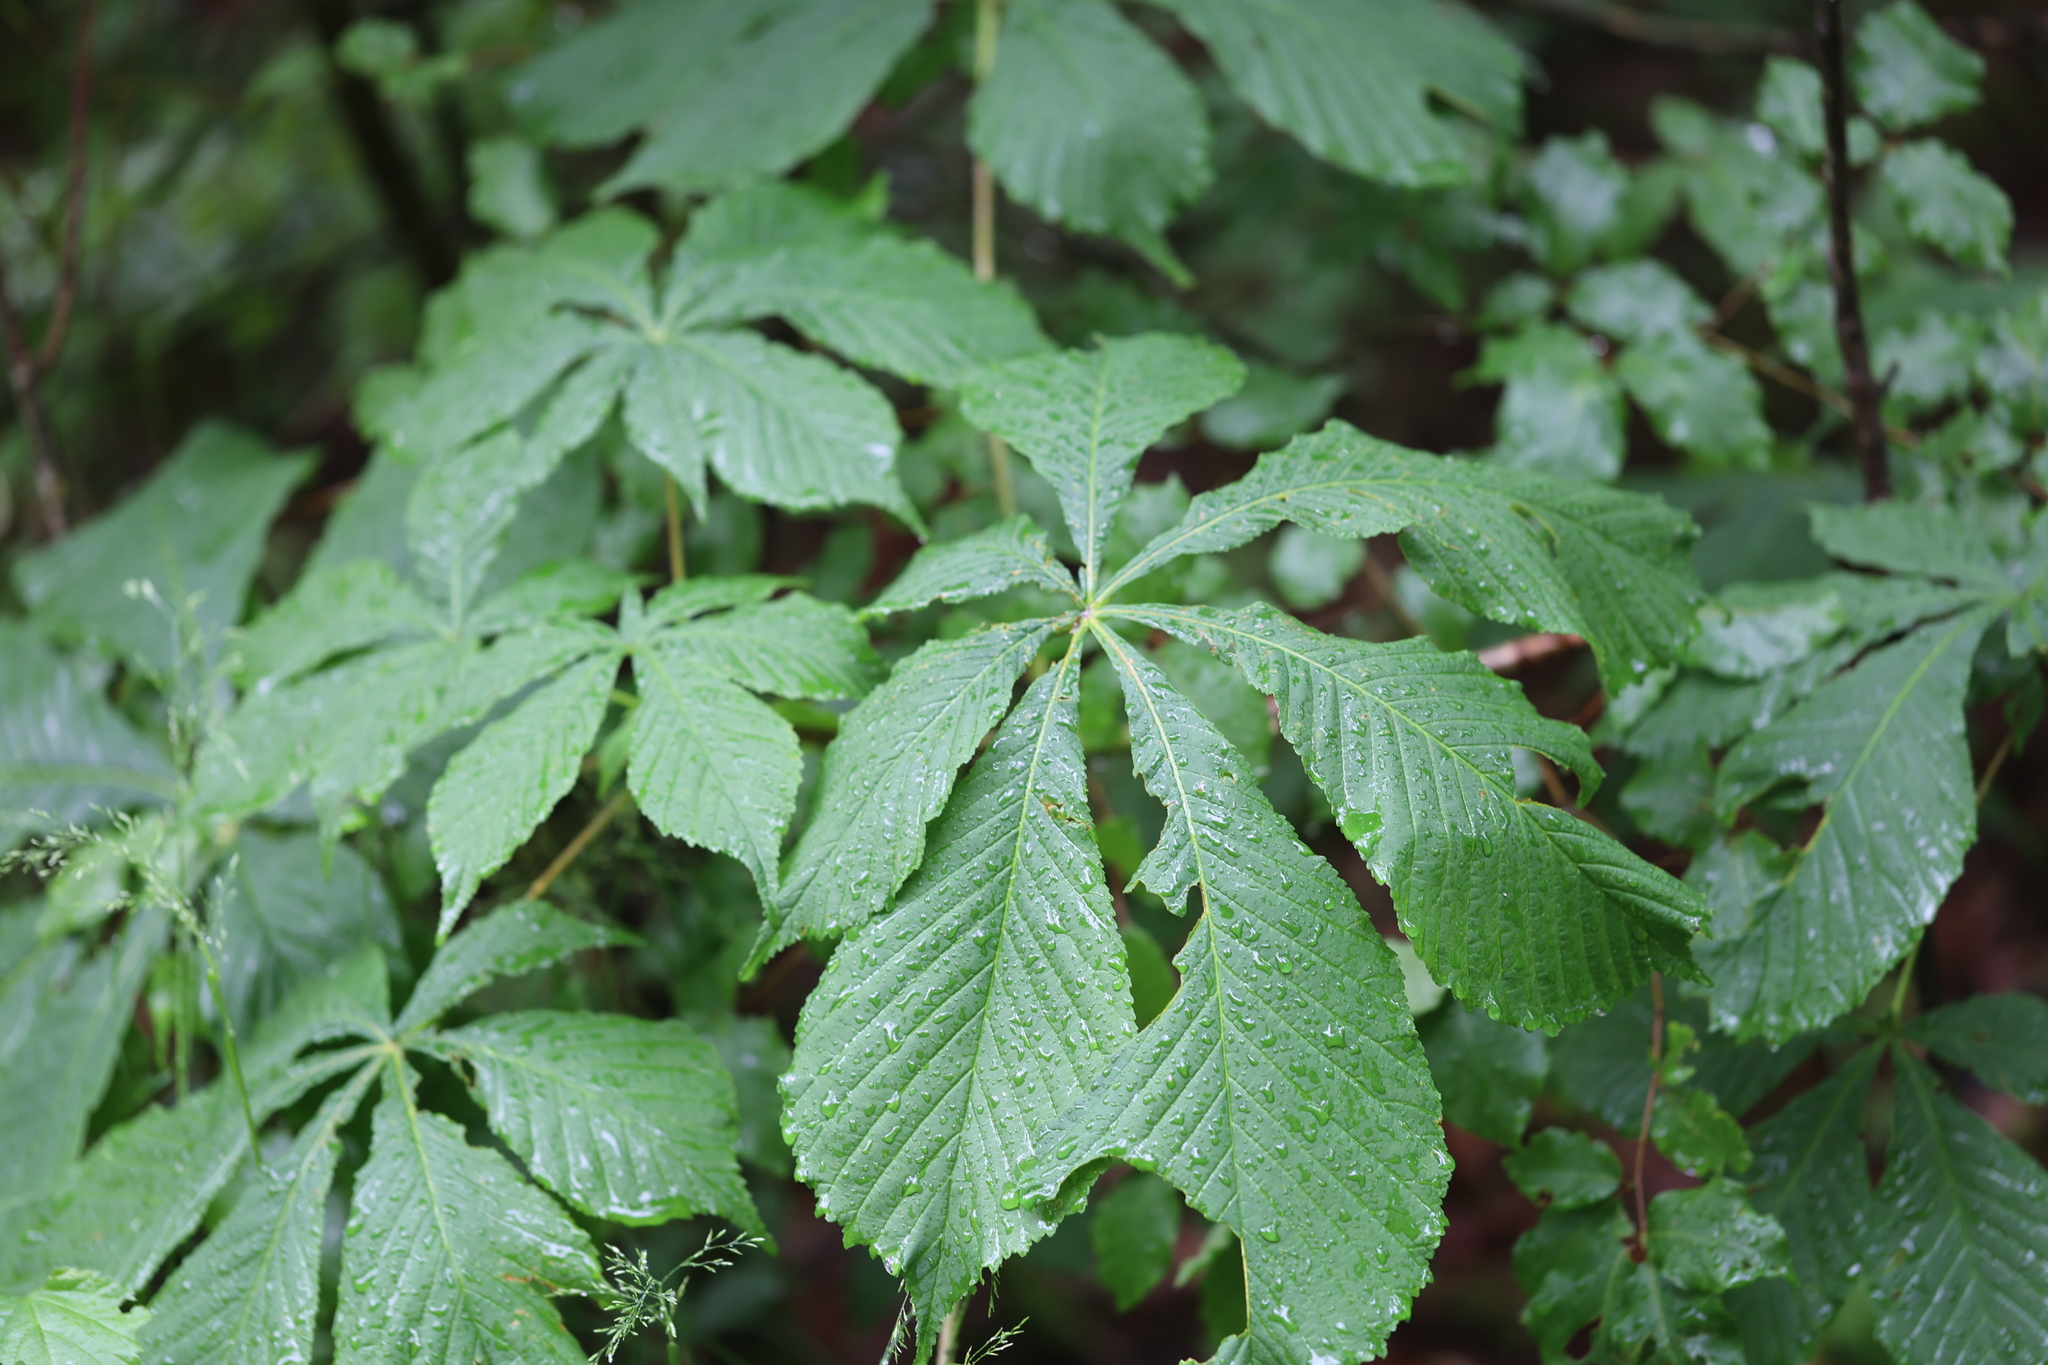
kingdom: Plantae
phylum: Tracheophyta
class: Magnoliopsida
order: Sapindales
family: Sapindaceae
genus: Aesculus
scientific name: Aesculus hippocastanum
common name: Horse-chestnut
